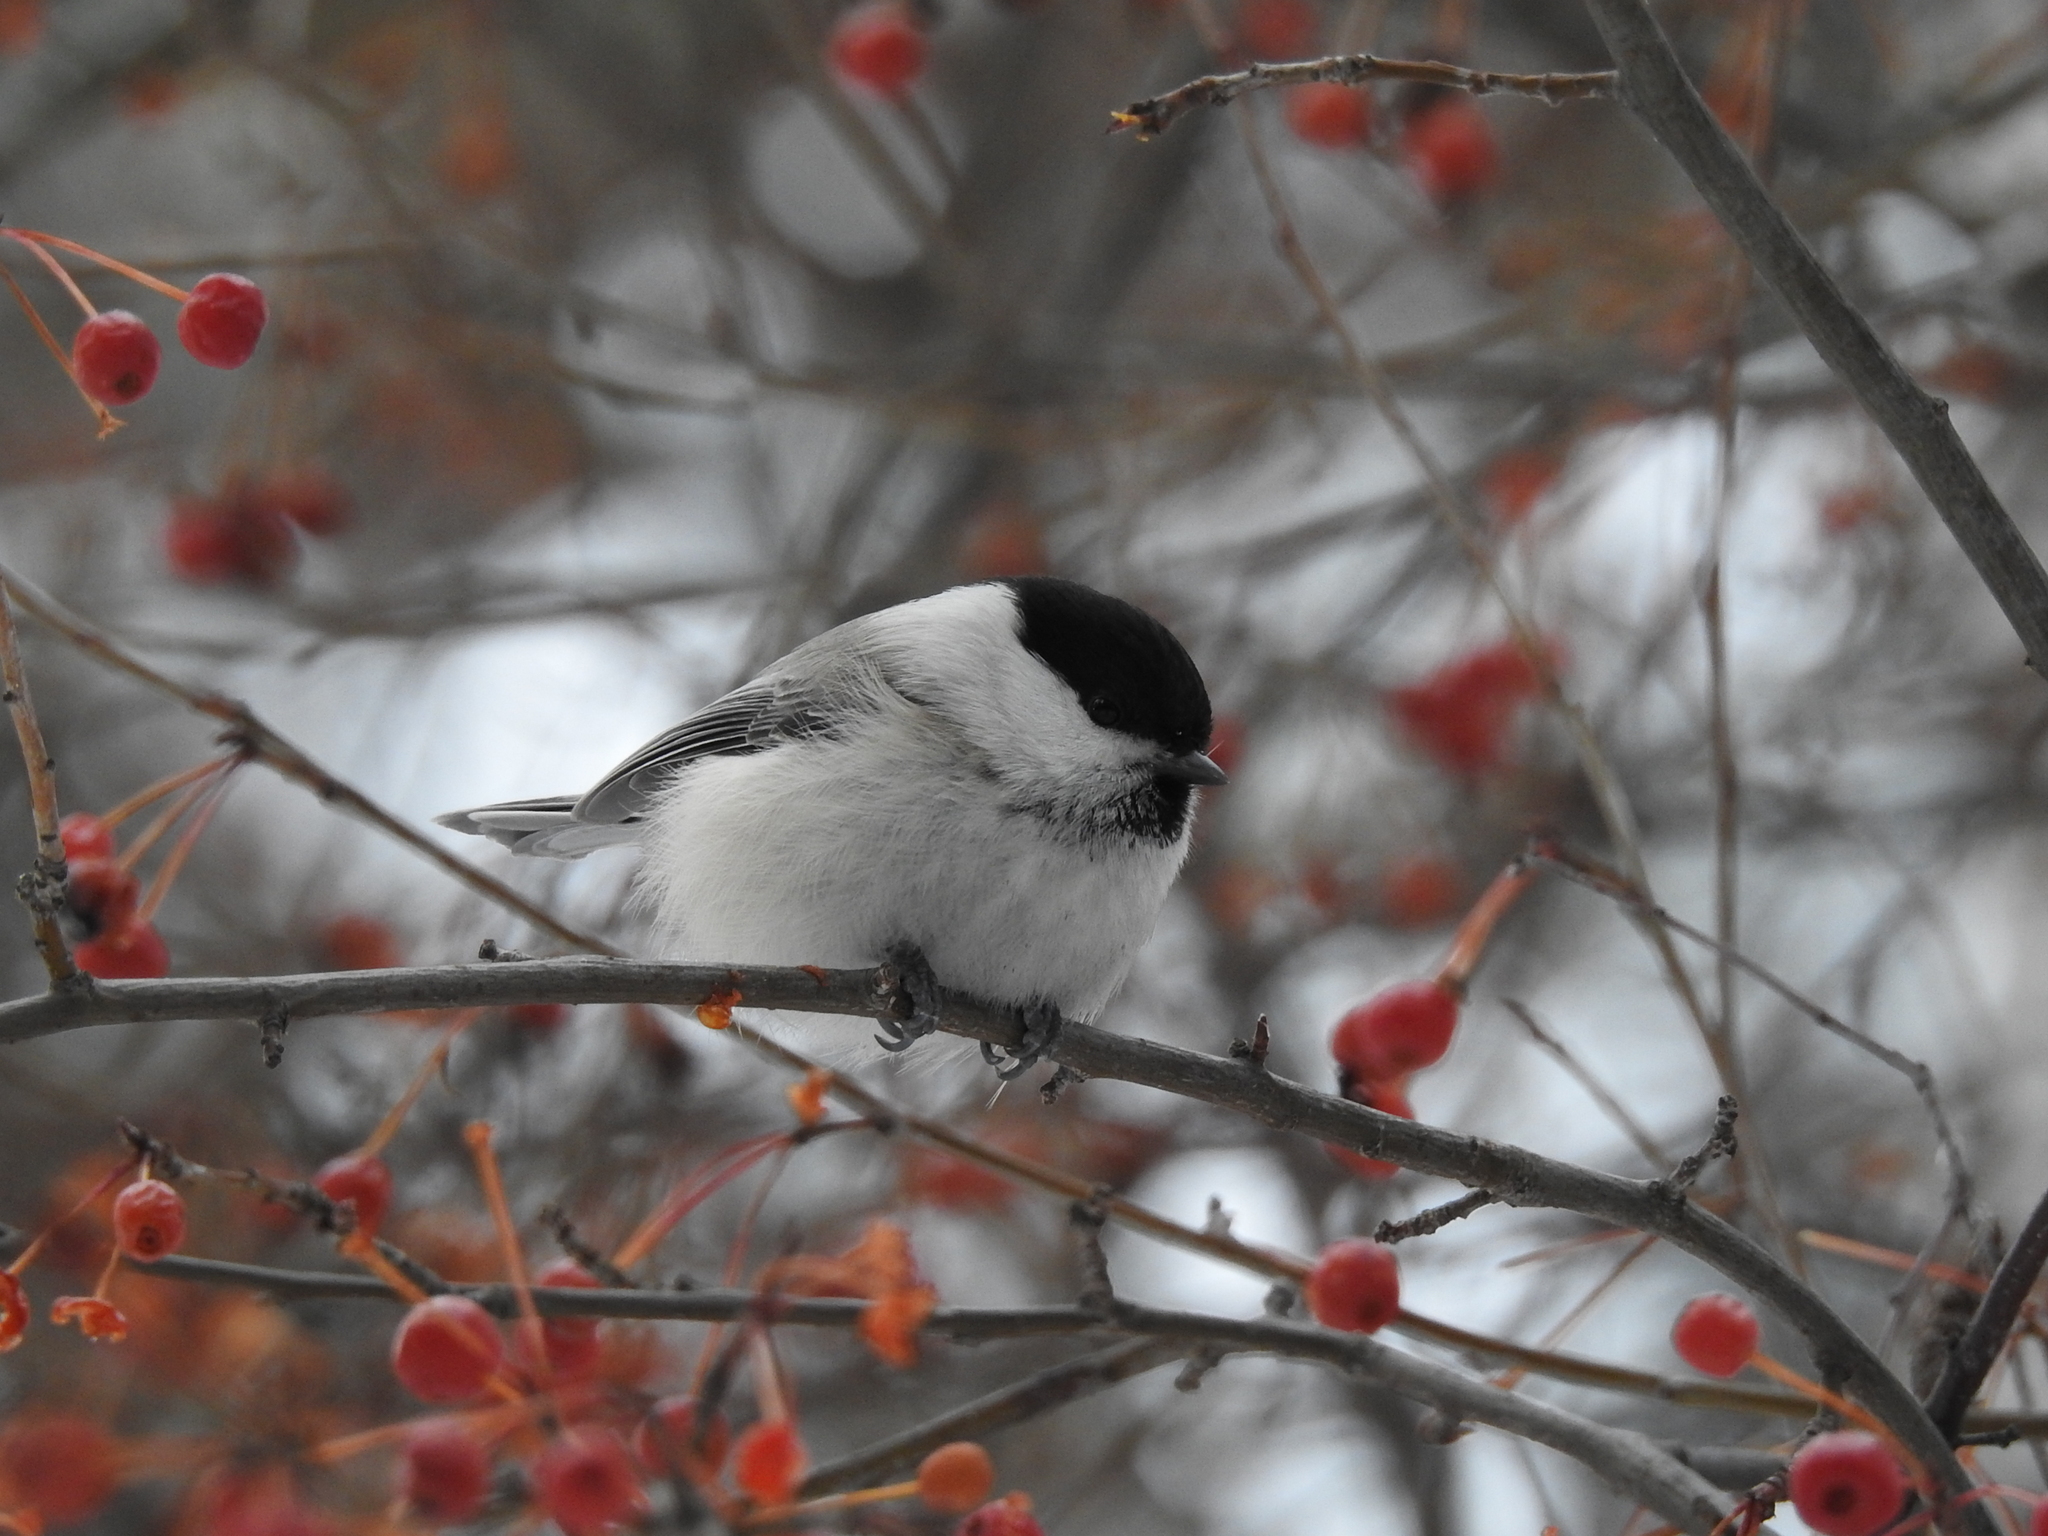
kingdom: Animalia
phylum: Chordata
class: Aves
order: Passeriformes
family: Paridae
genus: Poecile
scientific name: Poecile montanus
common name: Willow tit
